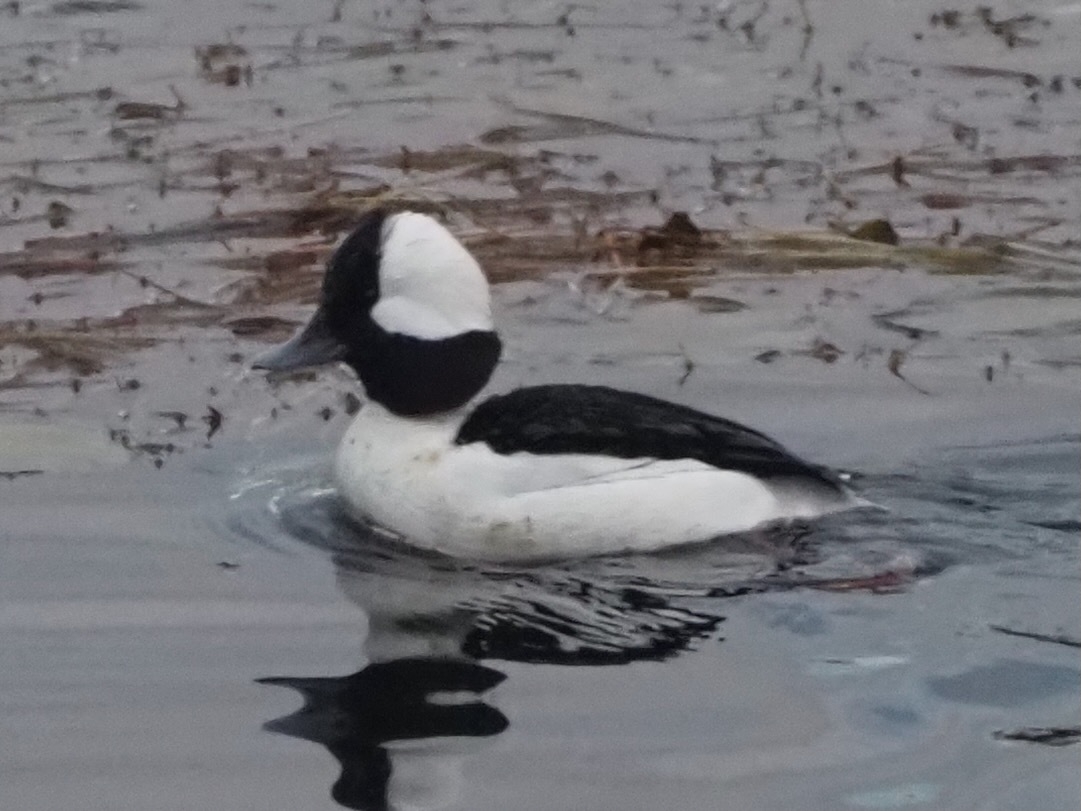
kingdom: Animalia
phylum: Chordata
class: Aves
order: Anseriformes
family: Anatidae
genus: Bucephala
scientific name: Bucephala albeola
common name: Bufflehead
